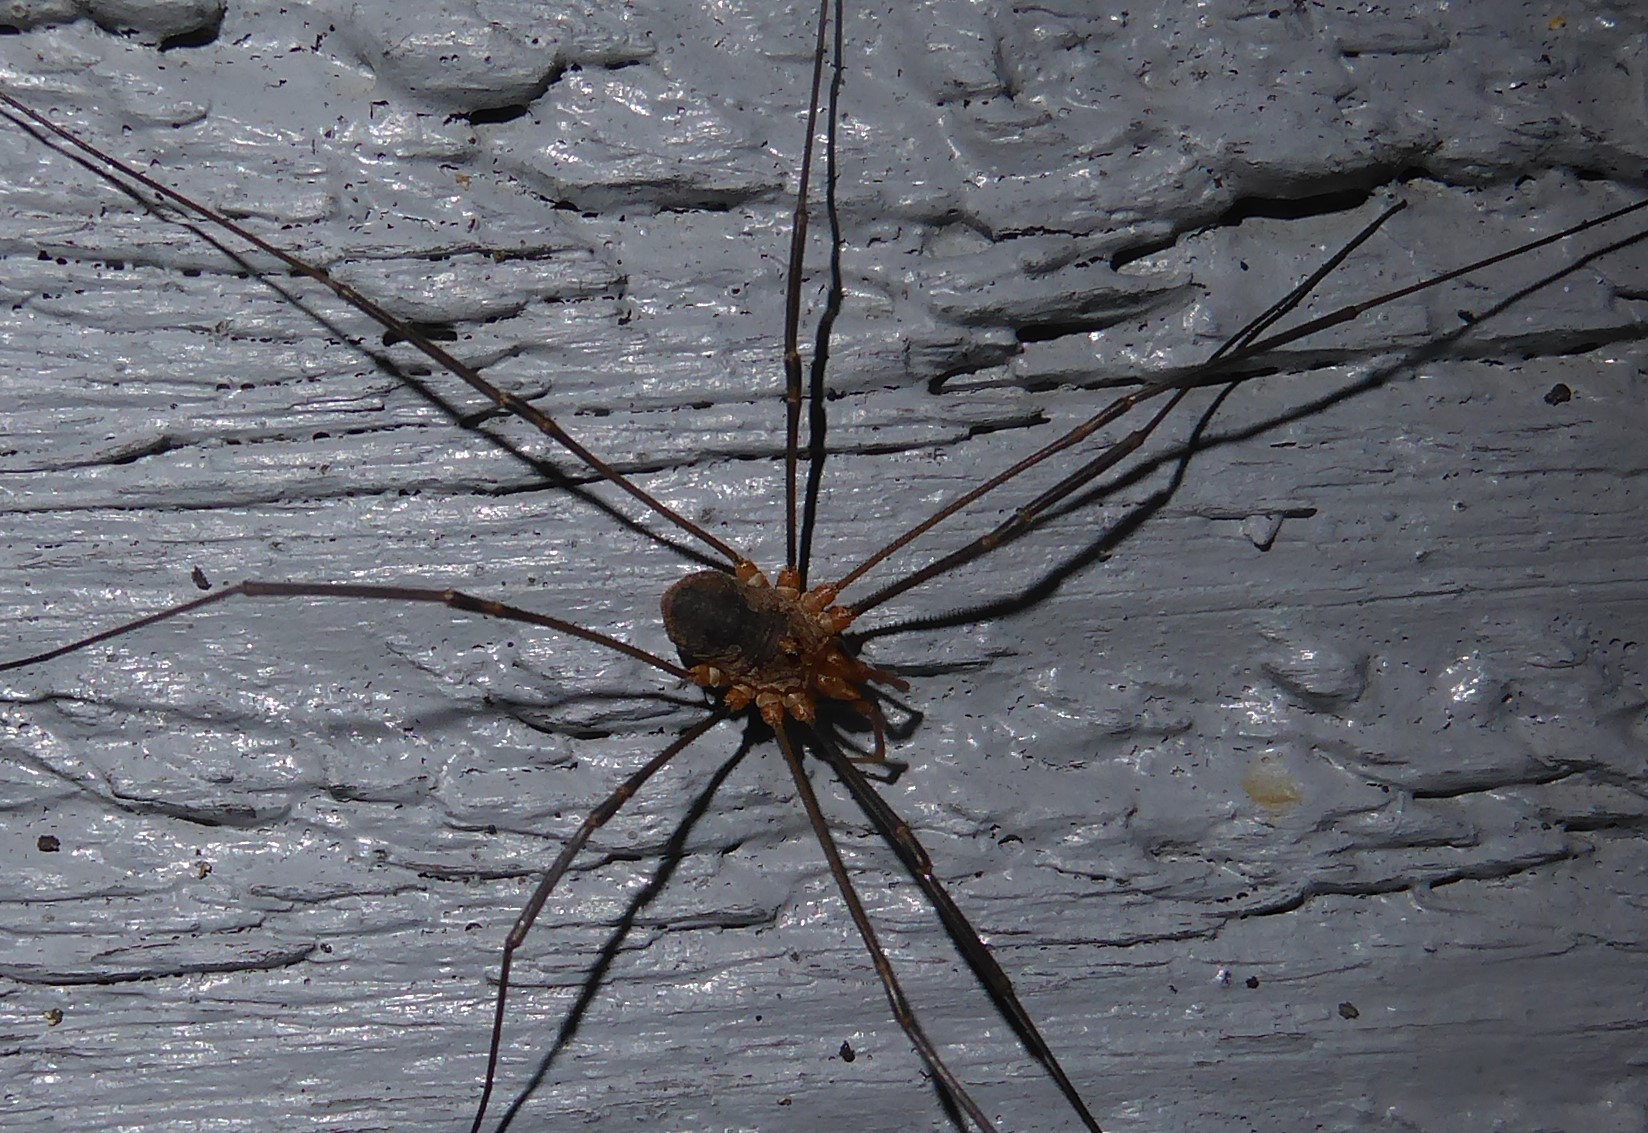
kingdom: Animalia
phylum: Arthropoda
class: Arachnida
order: Opiliones
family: Phalangiidae
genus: Phalangium
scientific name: Phalangium opilio
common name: Daddy longleg
